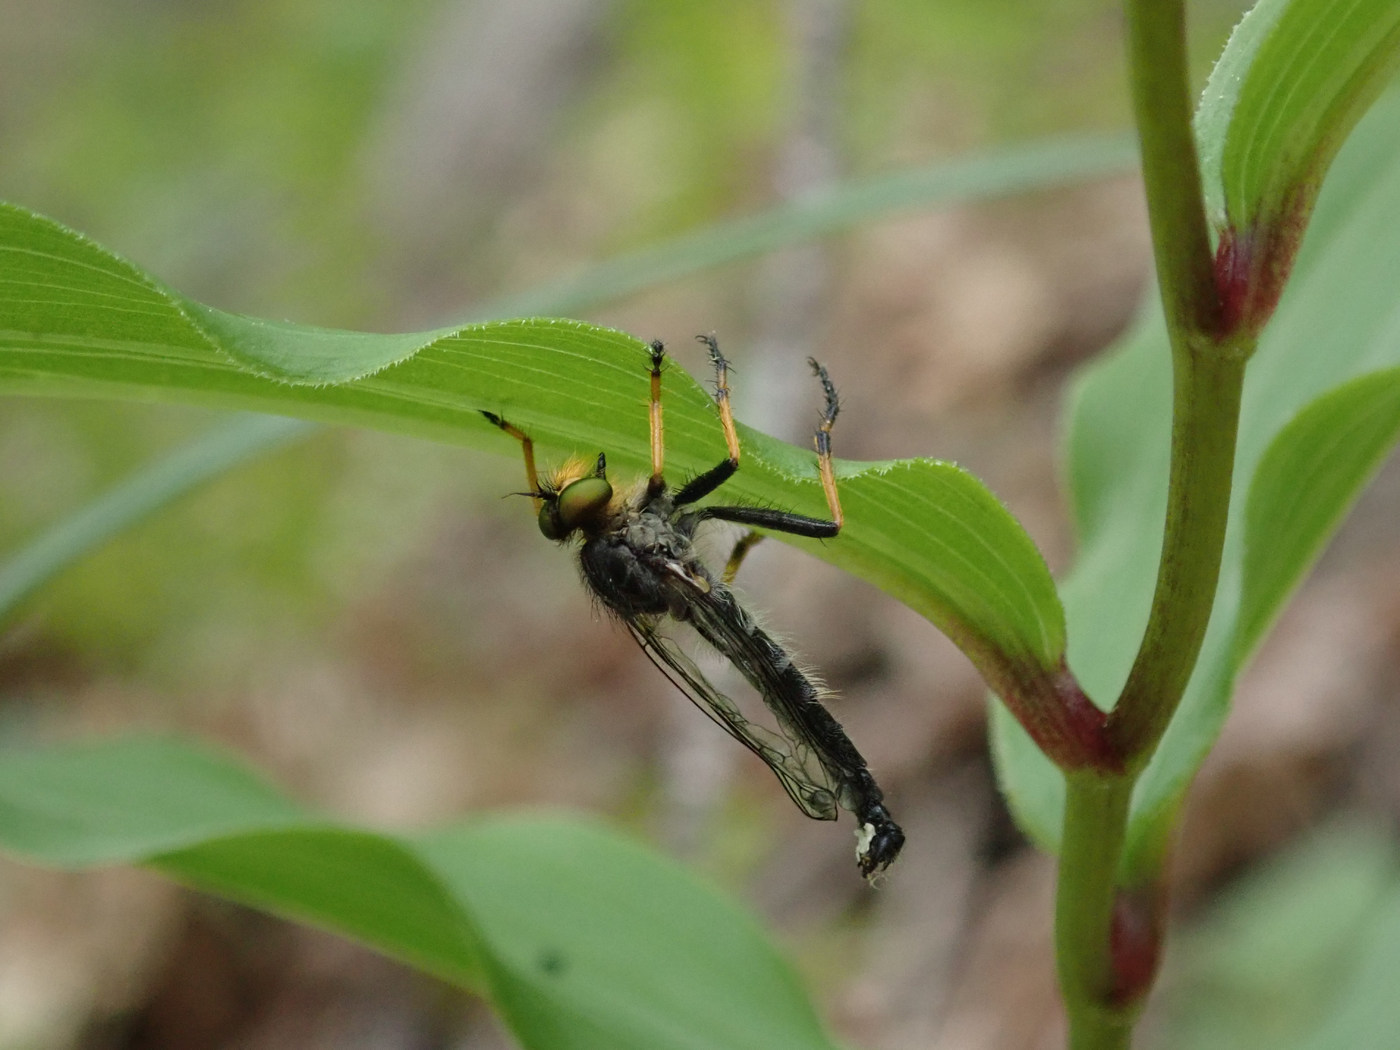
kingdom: Animalia
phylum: Arthropoda
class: Insecta
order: Diptera
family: Asilidae
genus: Neoitamus
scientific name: Neoitamus orphne
